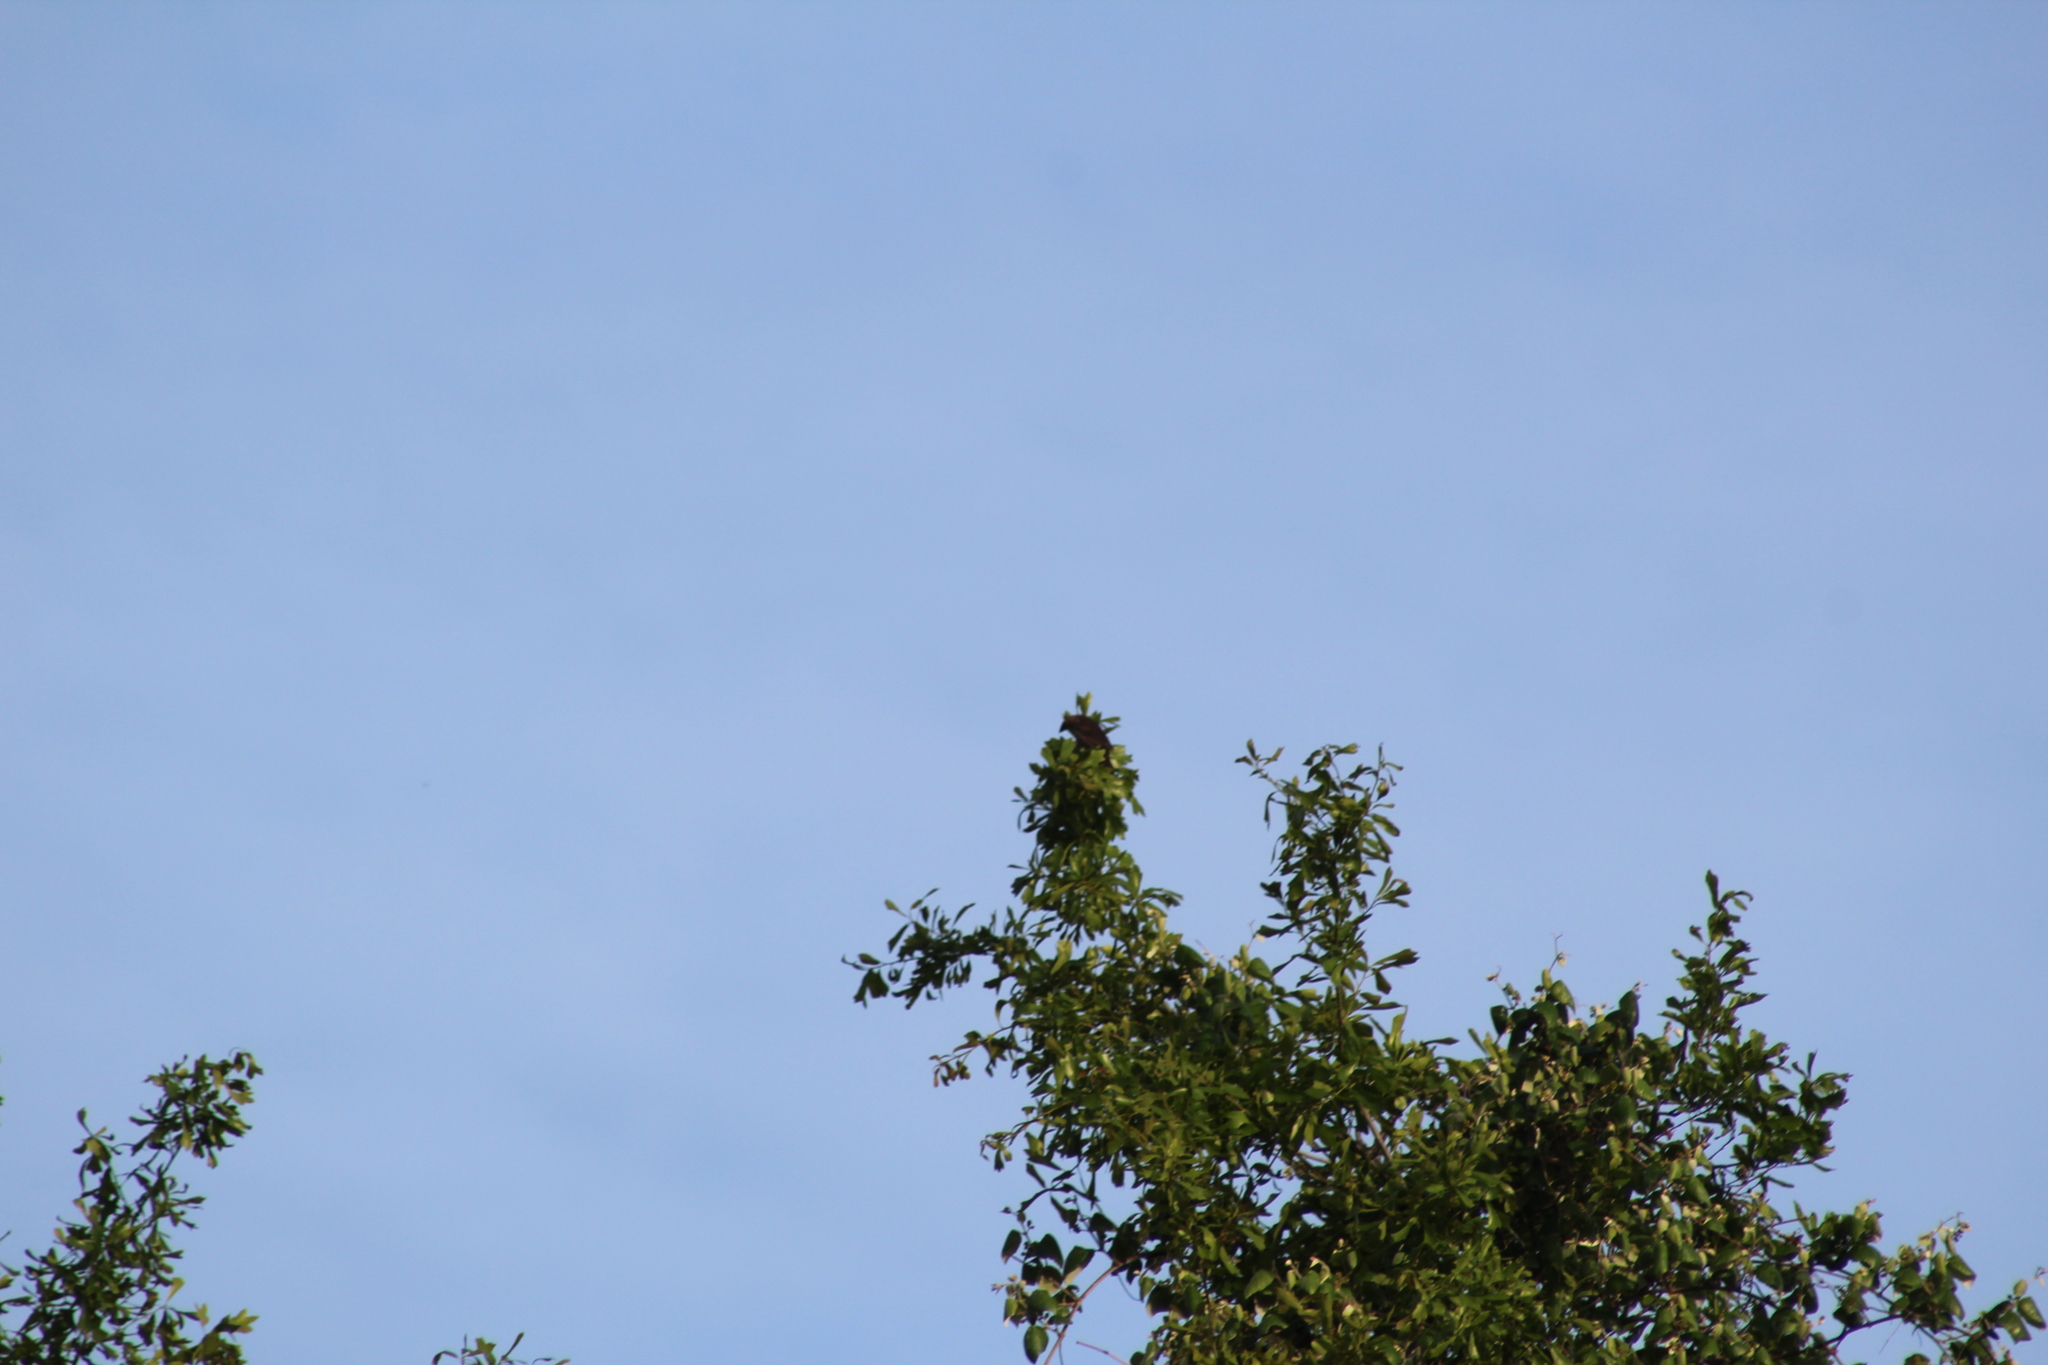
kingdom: Animalia
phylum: Chordata
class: Aves
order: Passeriformes
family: Icteridae
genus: Molothrus
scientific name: Molothrus ater
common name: Brown-headed cowbird
